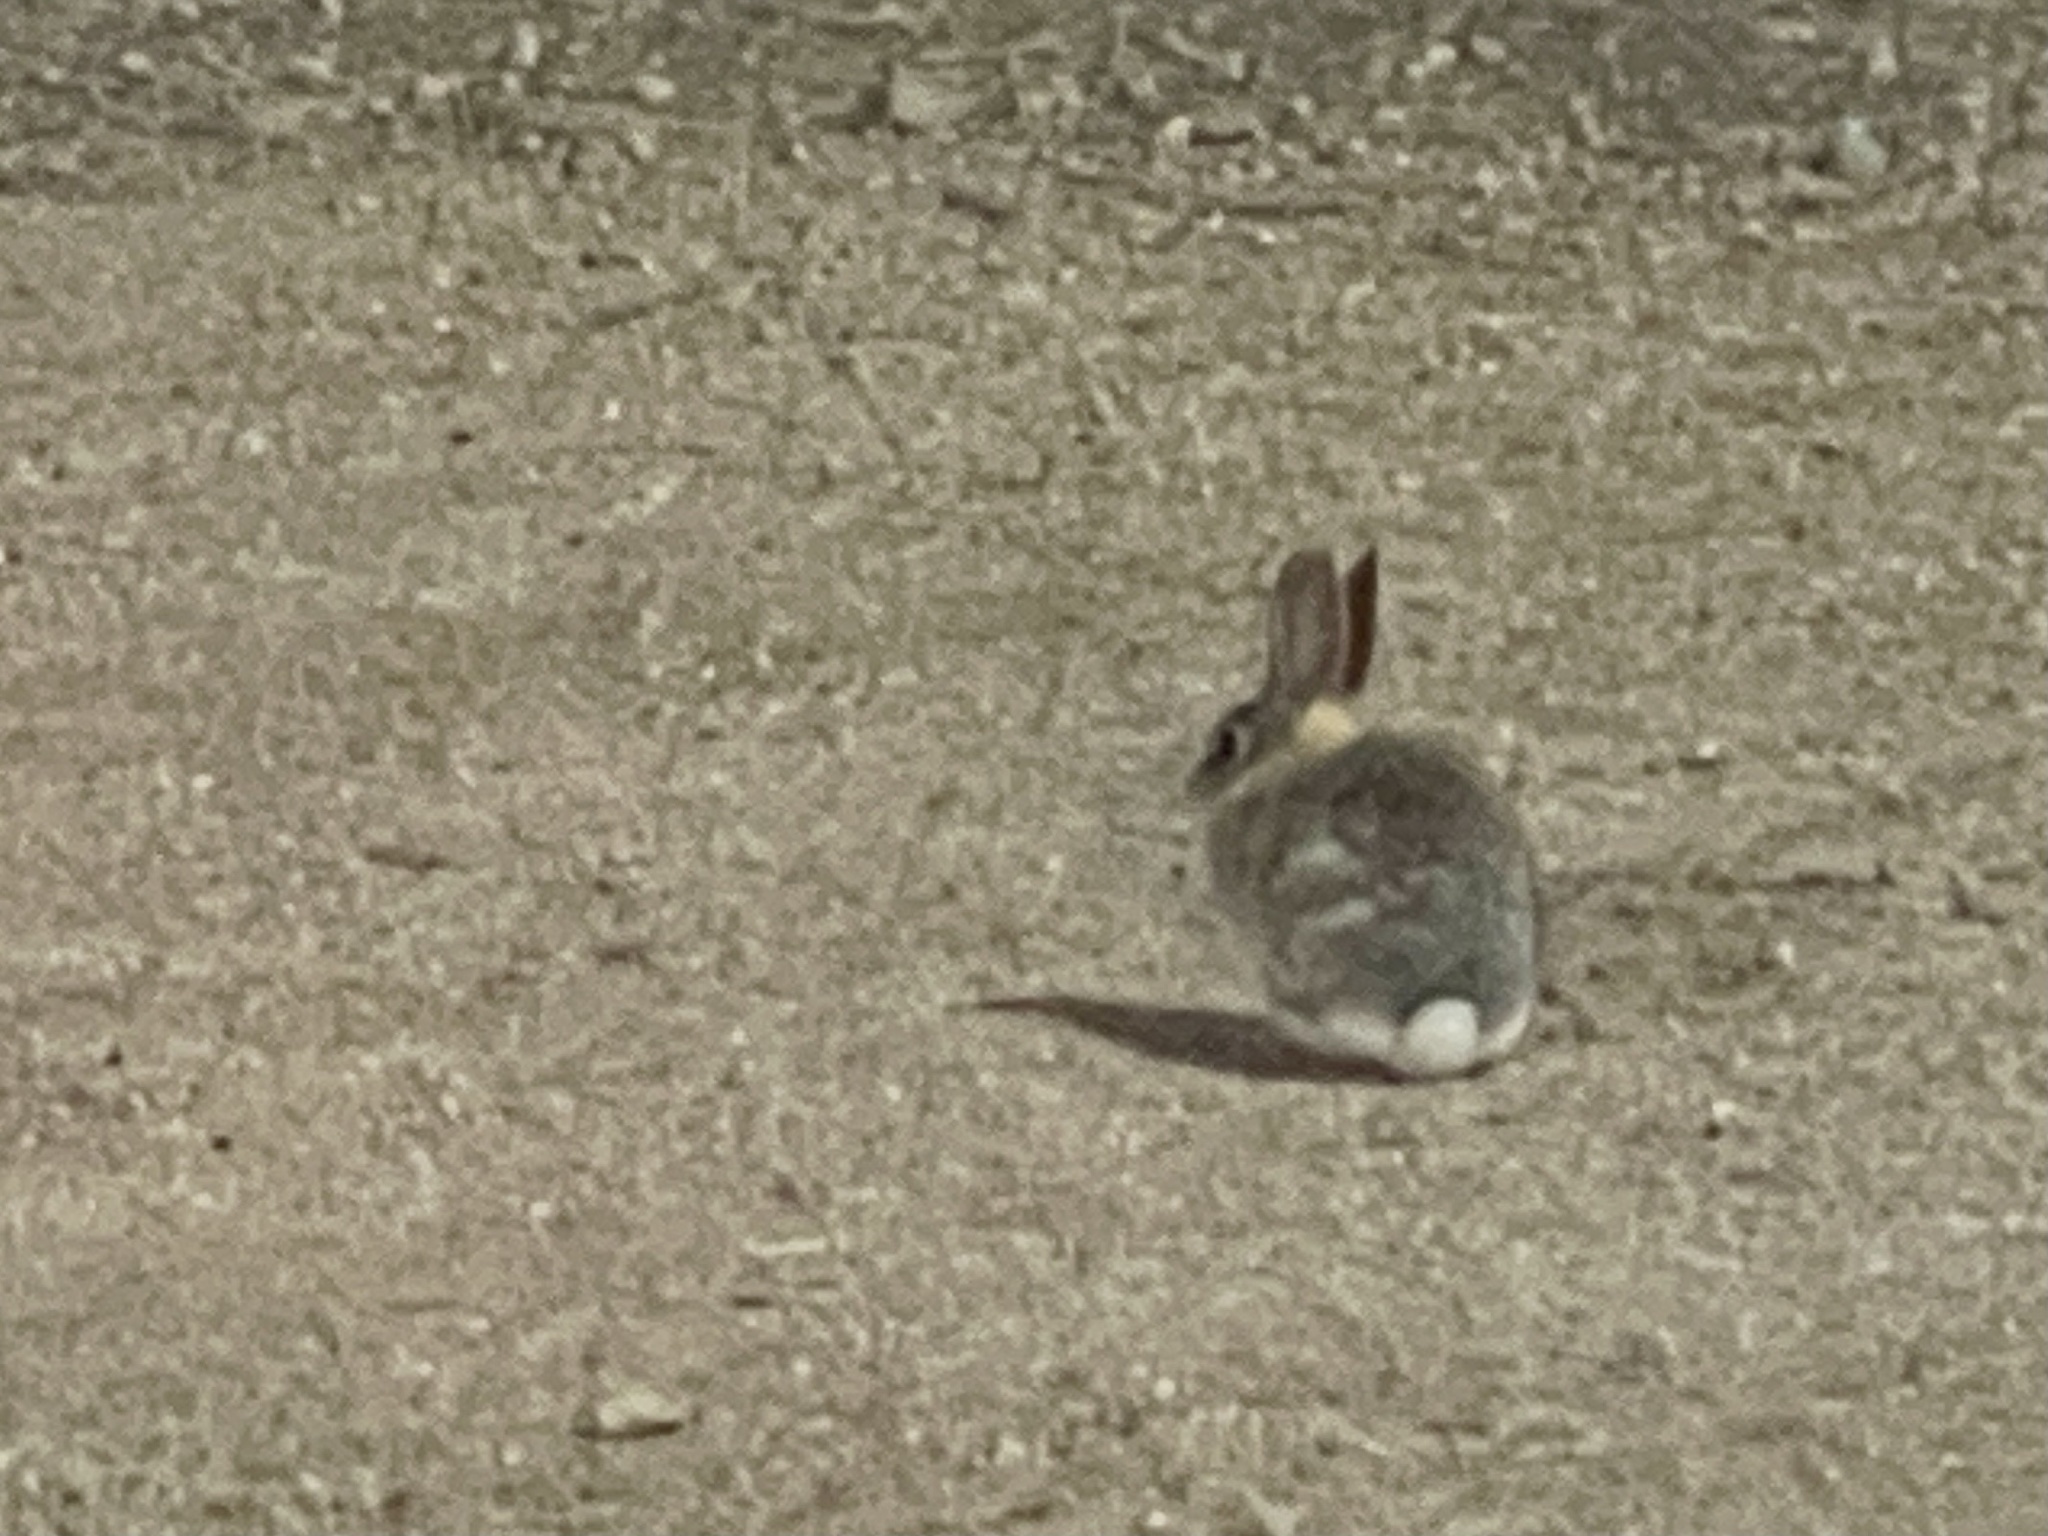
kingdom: Animalia
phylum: Chordata
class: Mammalia
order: Lagomorpha
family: Leporidae
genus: Sylvilagus
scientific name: Sylvilagus audubonii
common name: Desert cottontail
